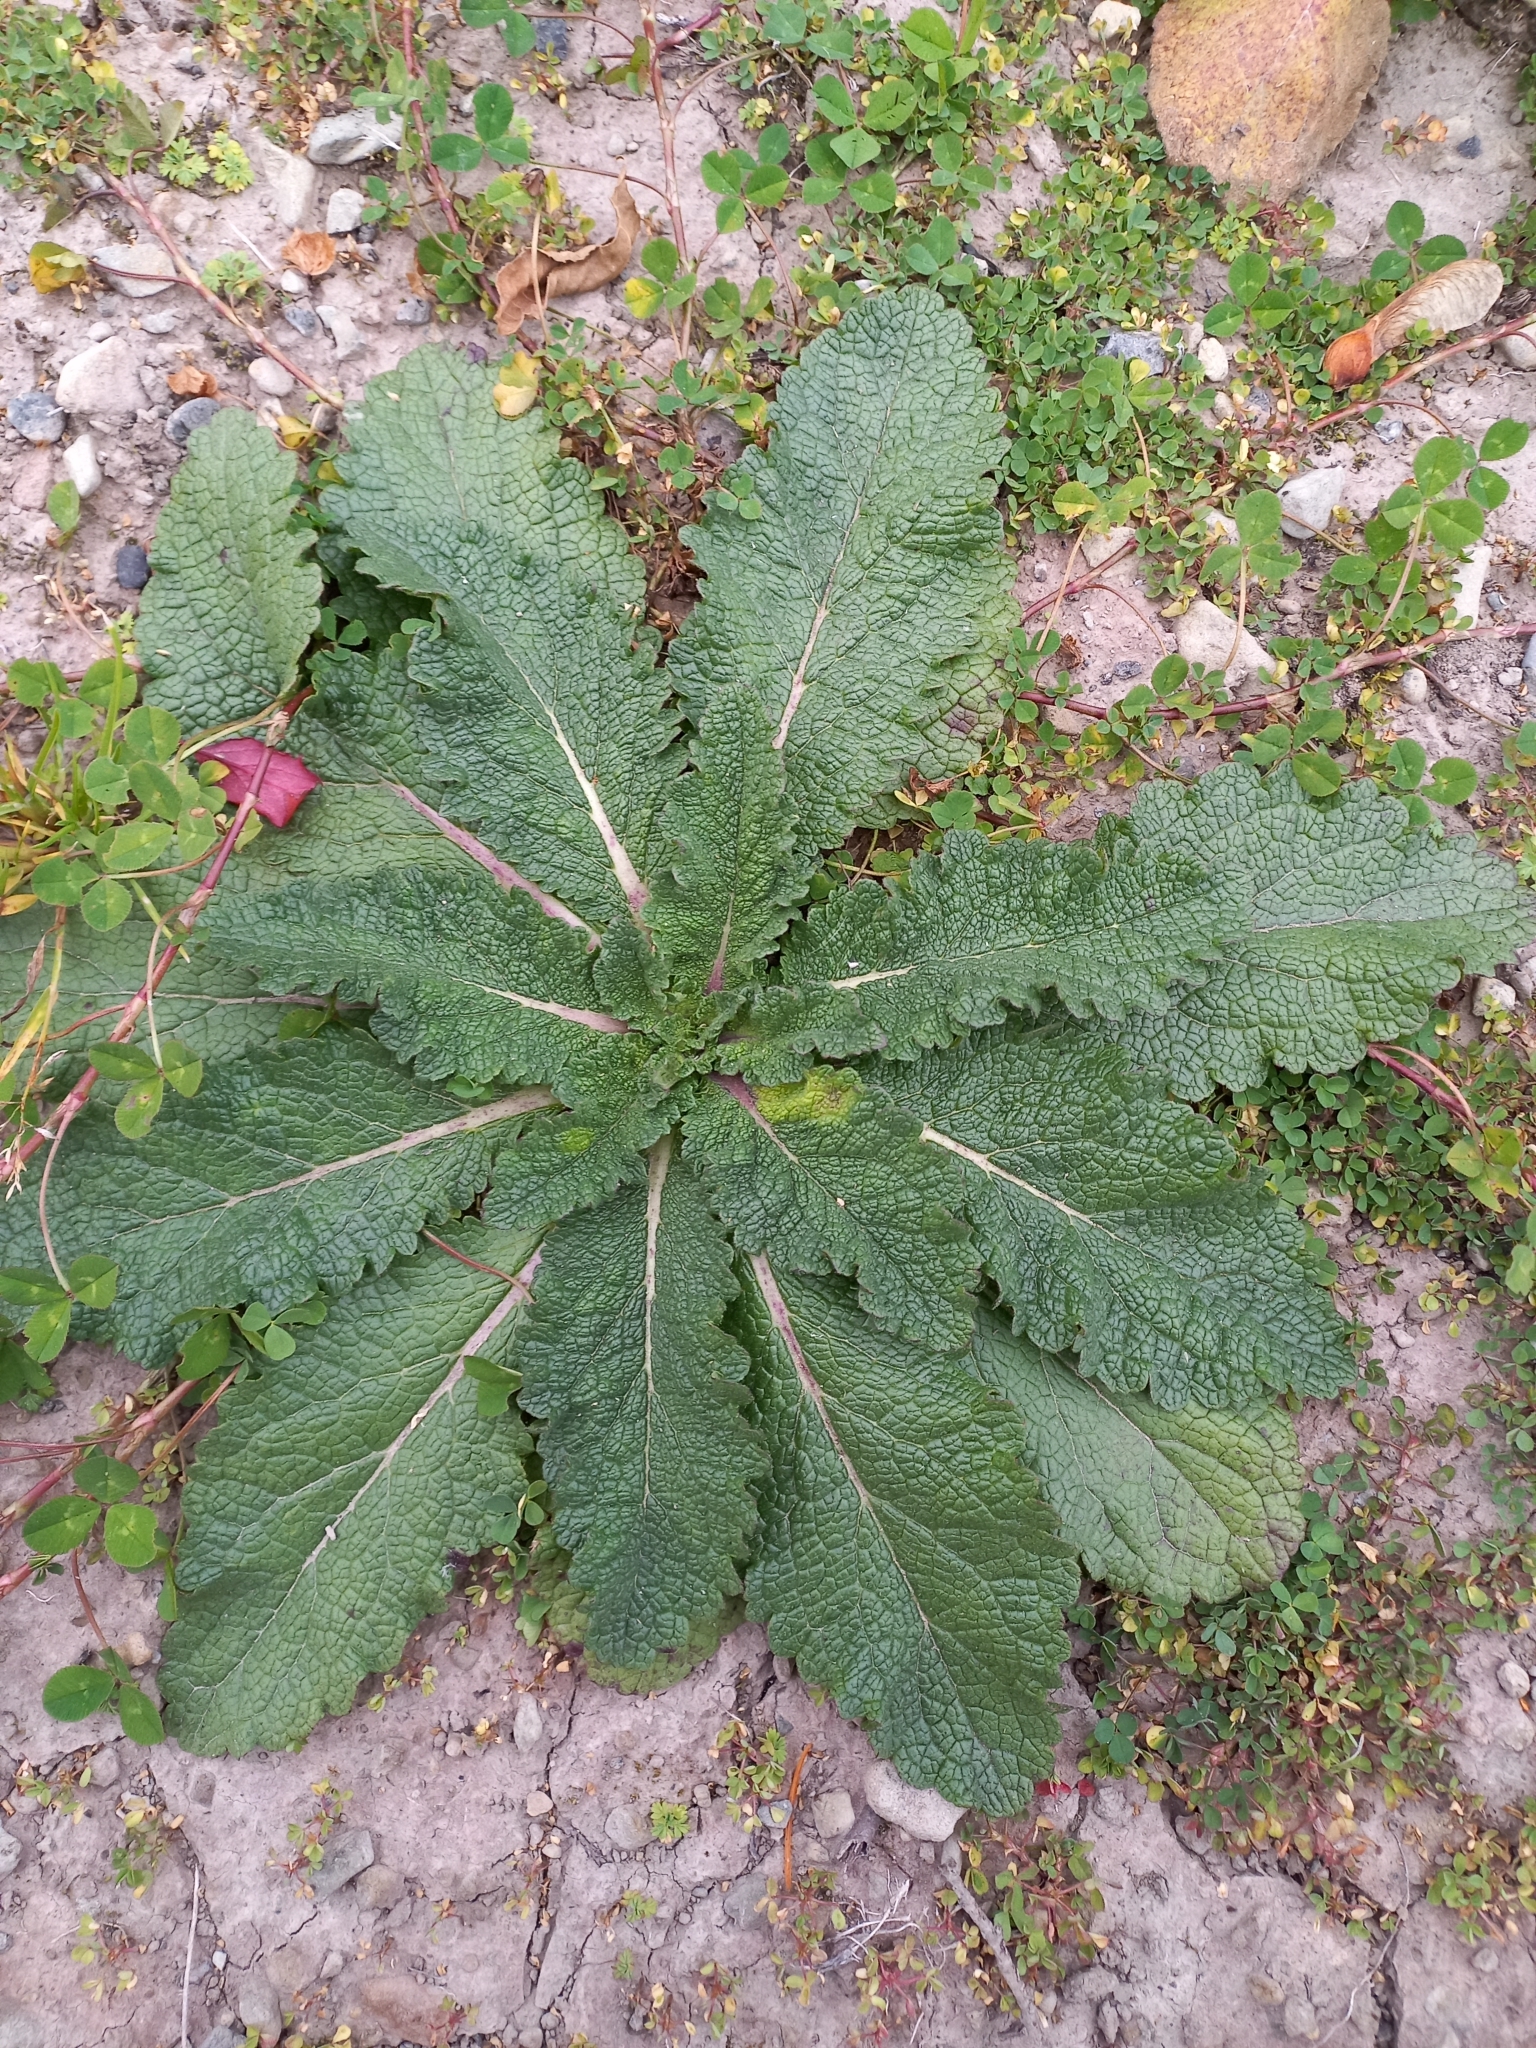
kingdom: Plantae
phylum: Tracheophyta
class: Magnoliopsida
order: Lamiales
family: Scrophulariaceae
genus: Verbascum
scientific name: Verbascum virgatum
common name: Twiggy mullein
